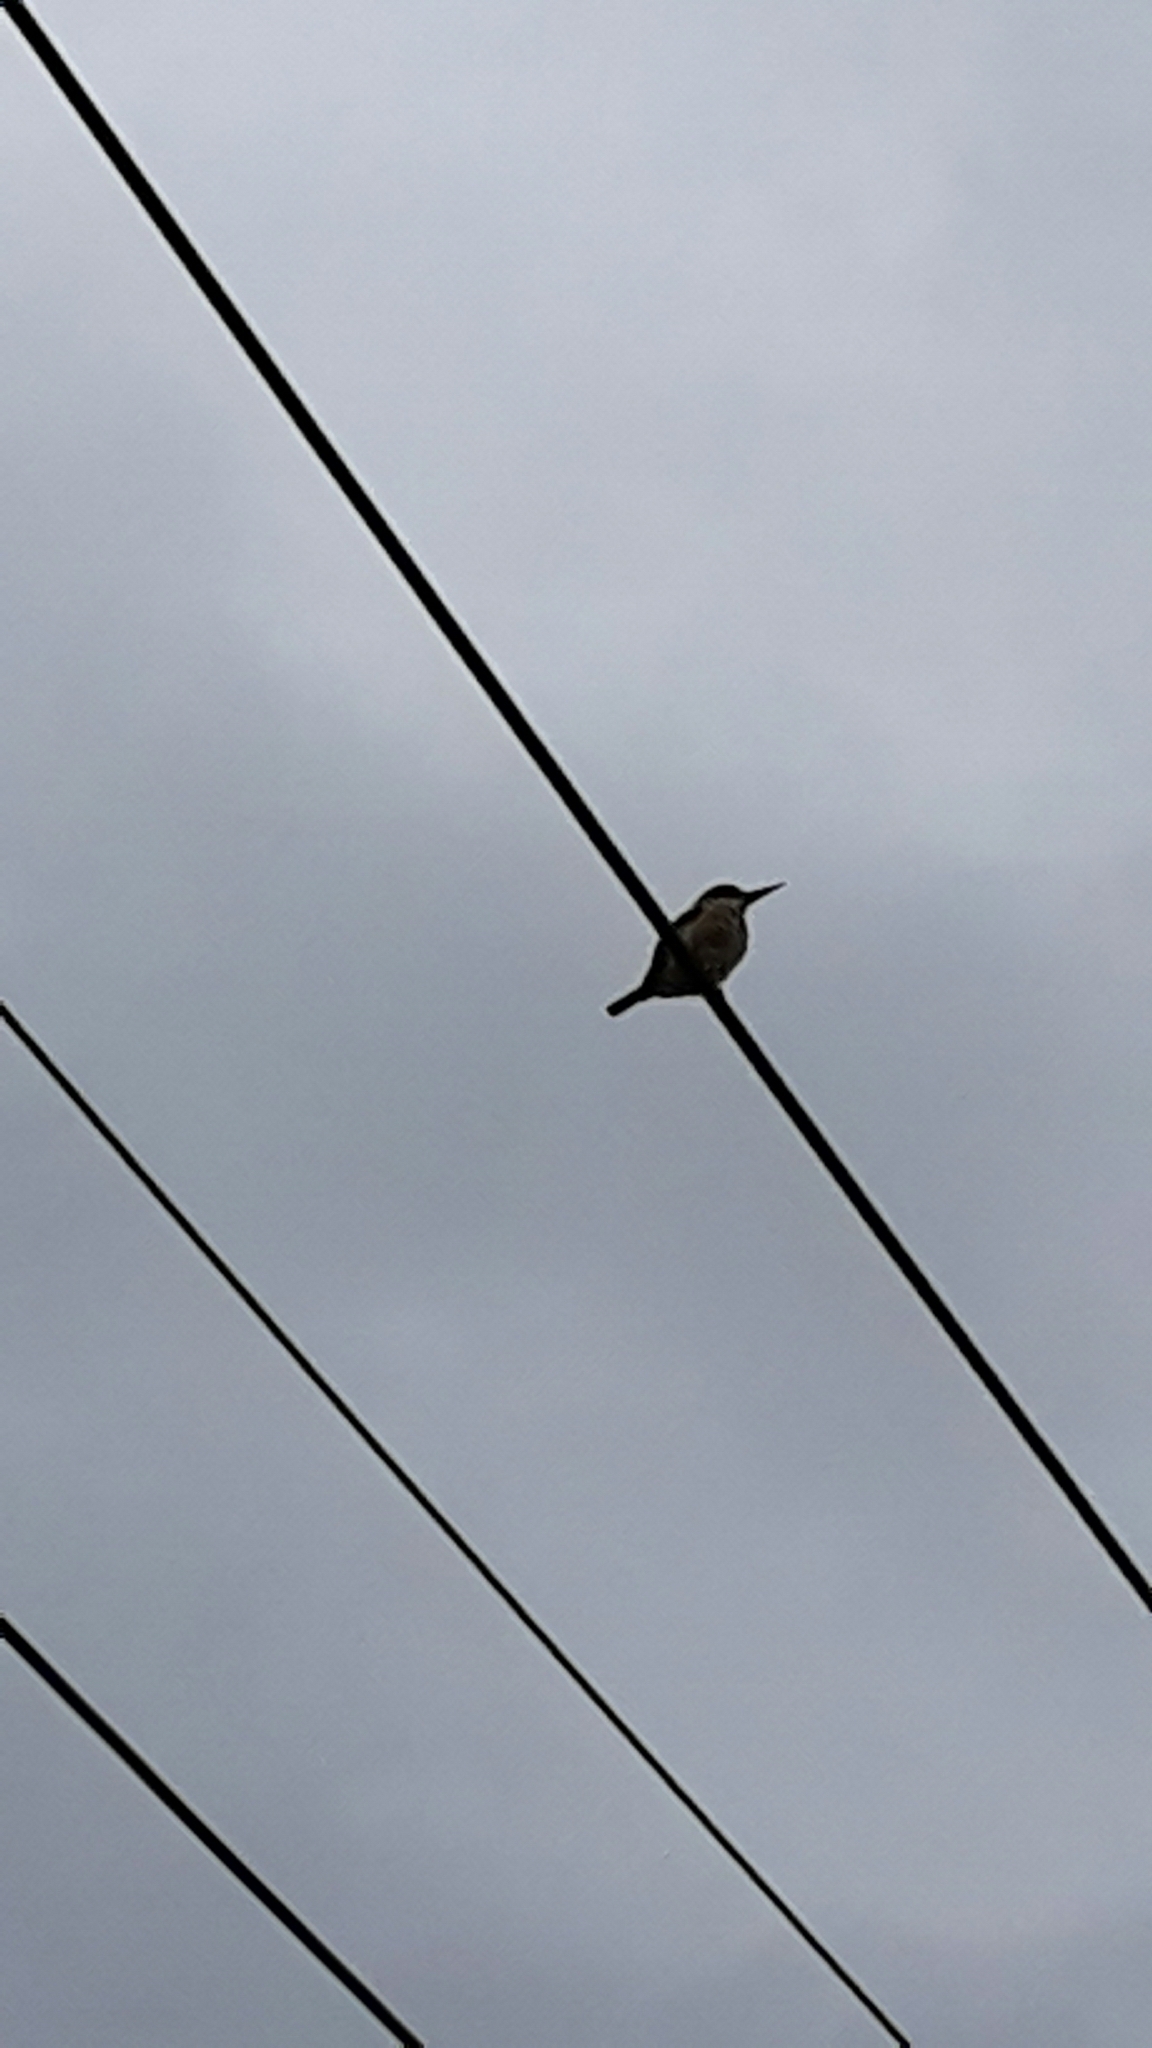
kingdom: Animalia
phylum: Chordata
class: Aves
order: Coraciiformes
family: Alcedinidae
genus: Todiramphus
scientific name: Todiramphus sanctus
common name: Sacred kingfisher
